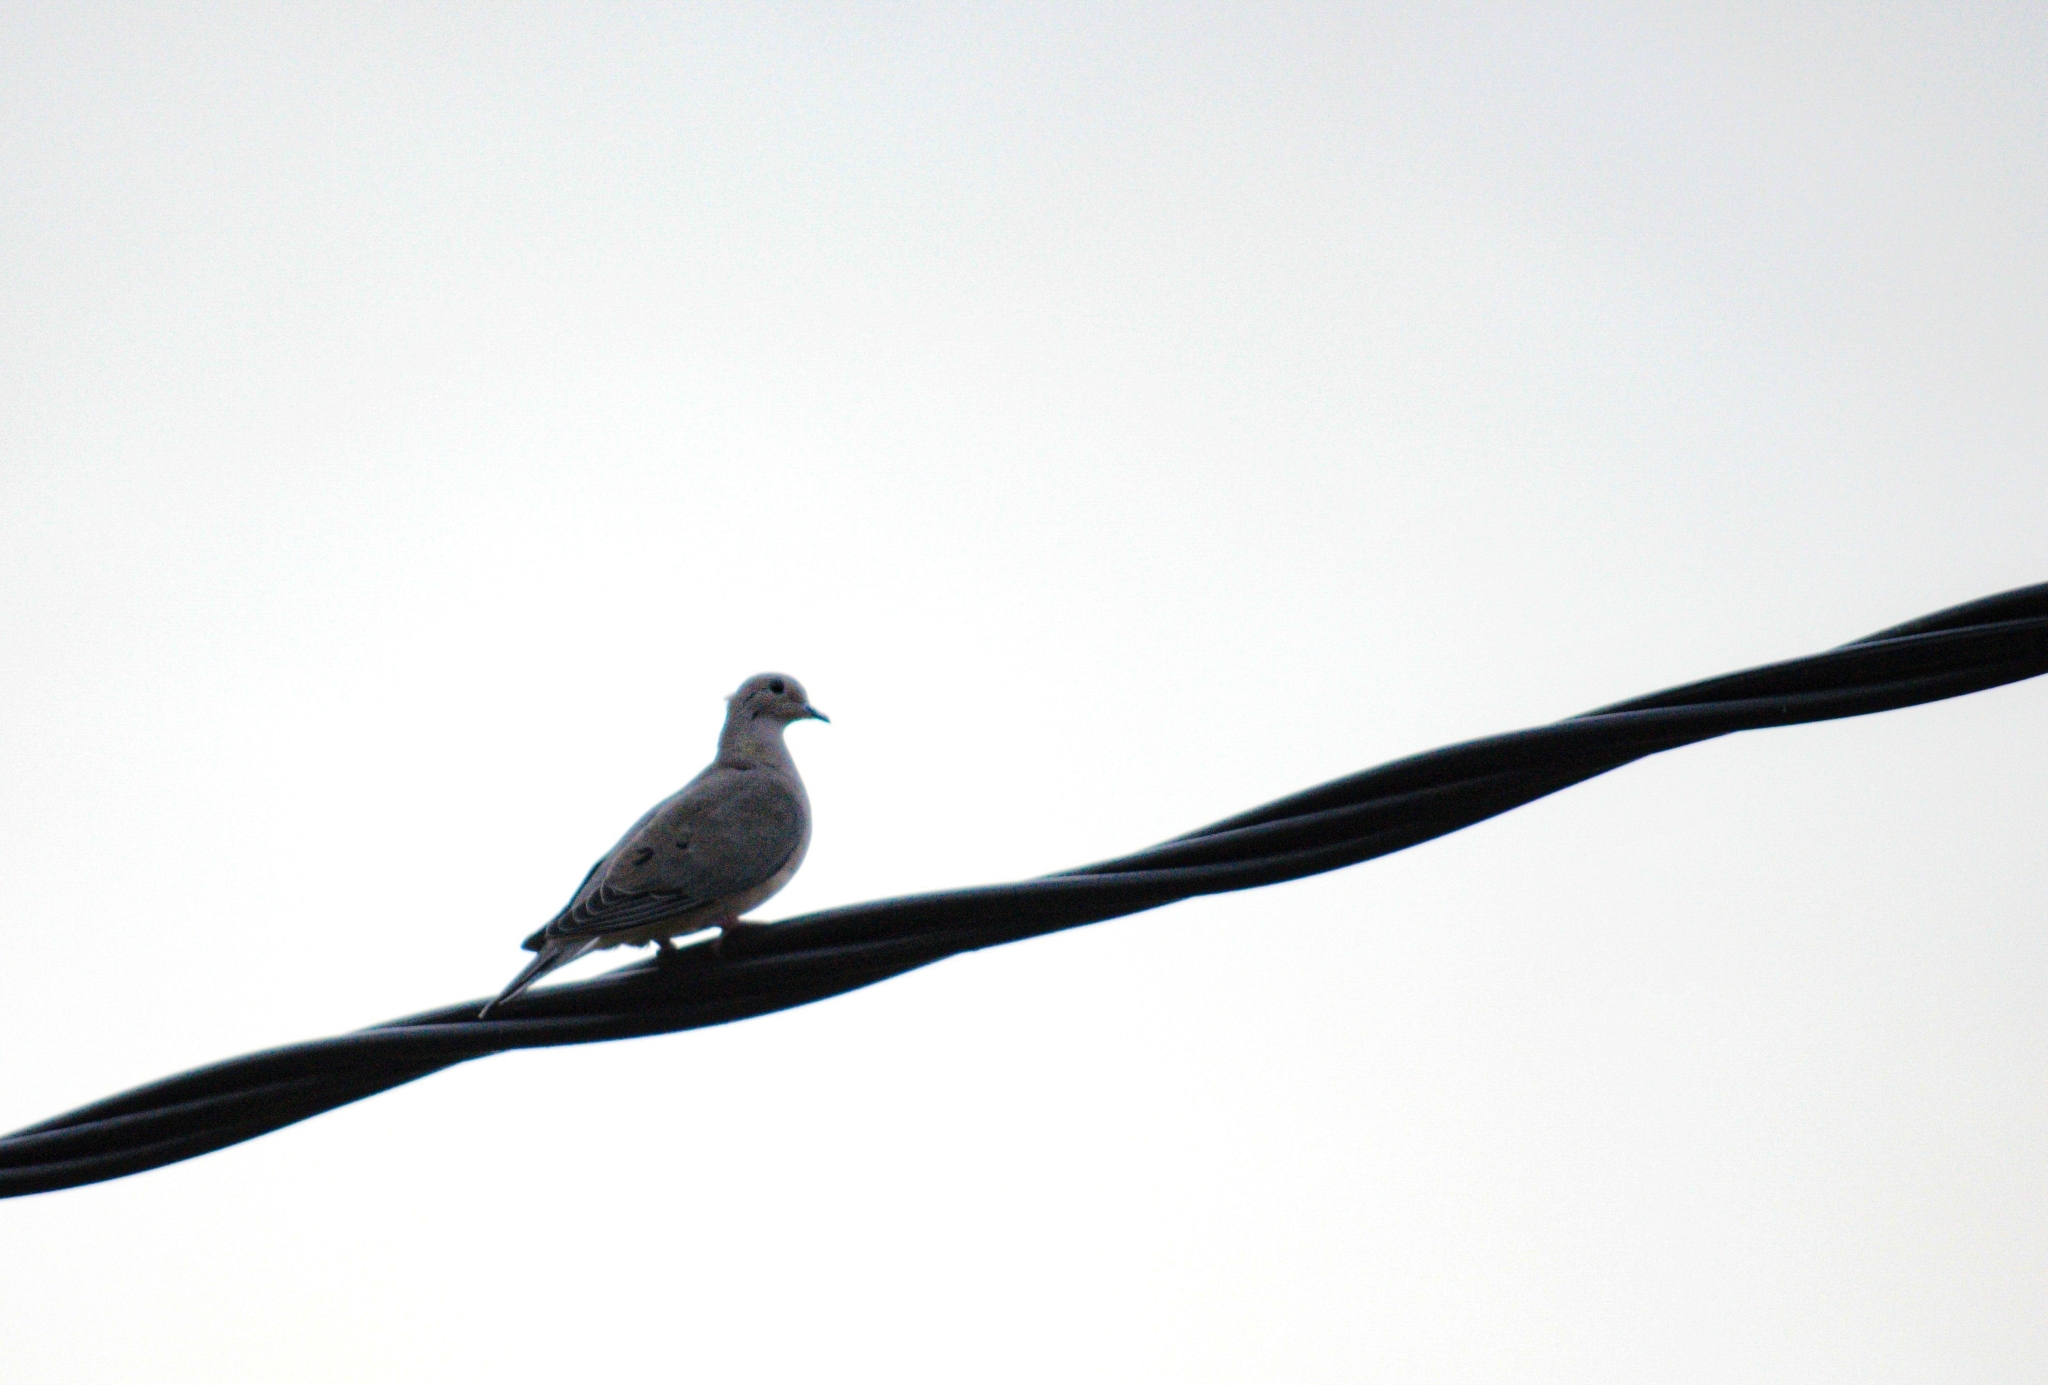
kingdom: Animalia
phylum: Chordata
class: Aves
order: Columbiformes
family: Columbidae
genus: Zenaida
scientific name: Zenaida auriculata
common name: Eared dove
